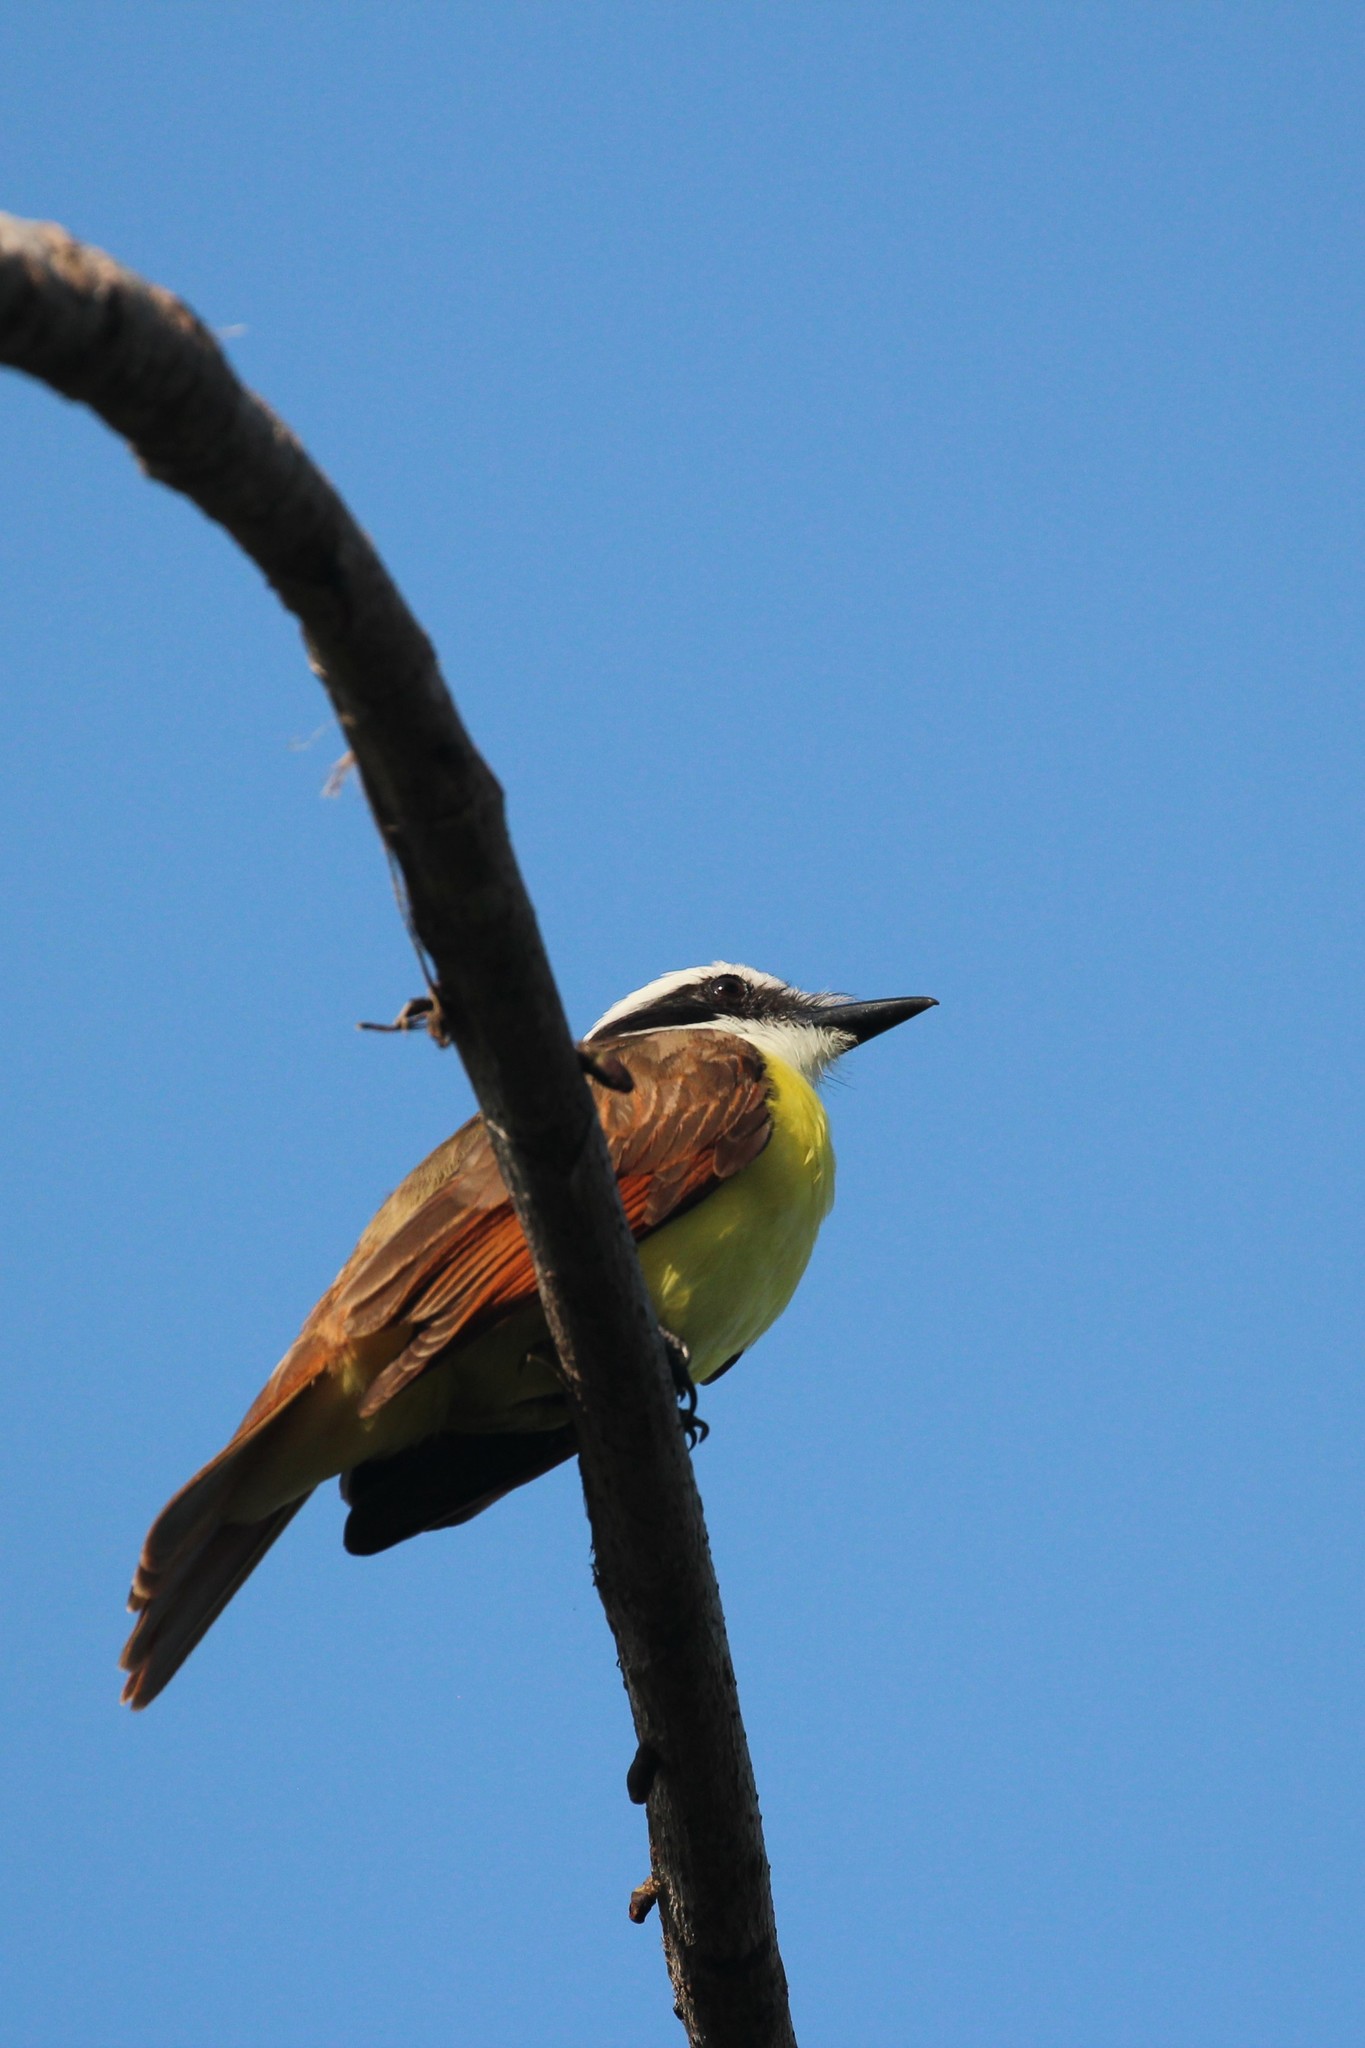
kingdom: Animalia
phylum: Chordata
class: Aves
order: Passeriformes
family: Tyrannidae
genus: Pitangus
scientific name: Pitangus sulphuratus
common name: Great kiskadee
